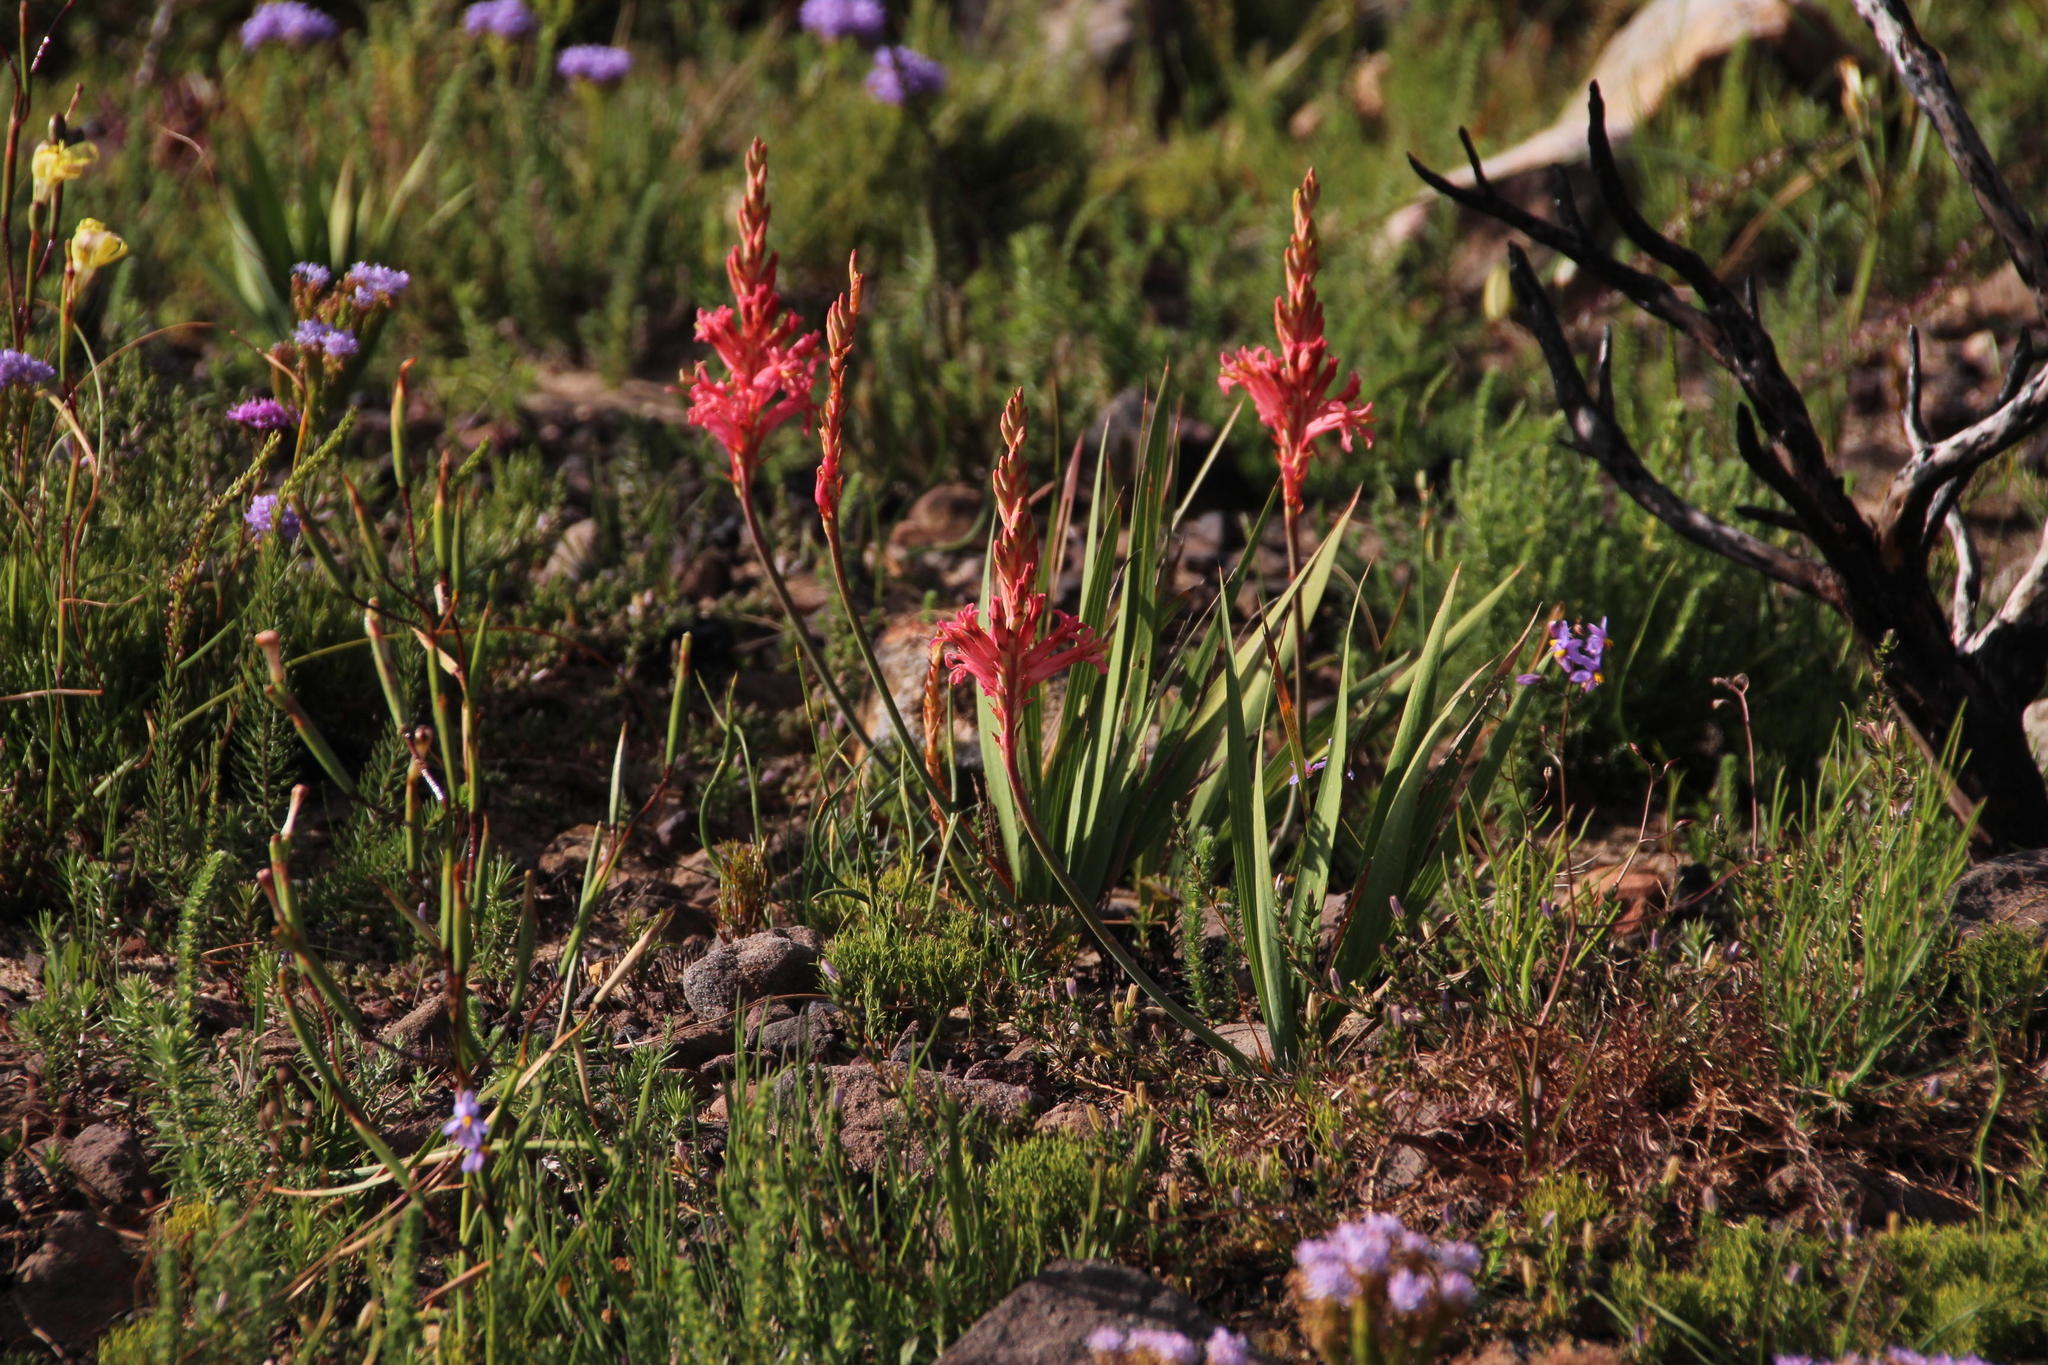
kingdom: Plantae
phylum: Tracheophyta
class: Liliopsida
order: Asparagales
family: Iridaceae
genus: Tritoniopsis
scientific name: Tritoniopsis antholyza
